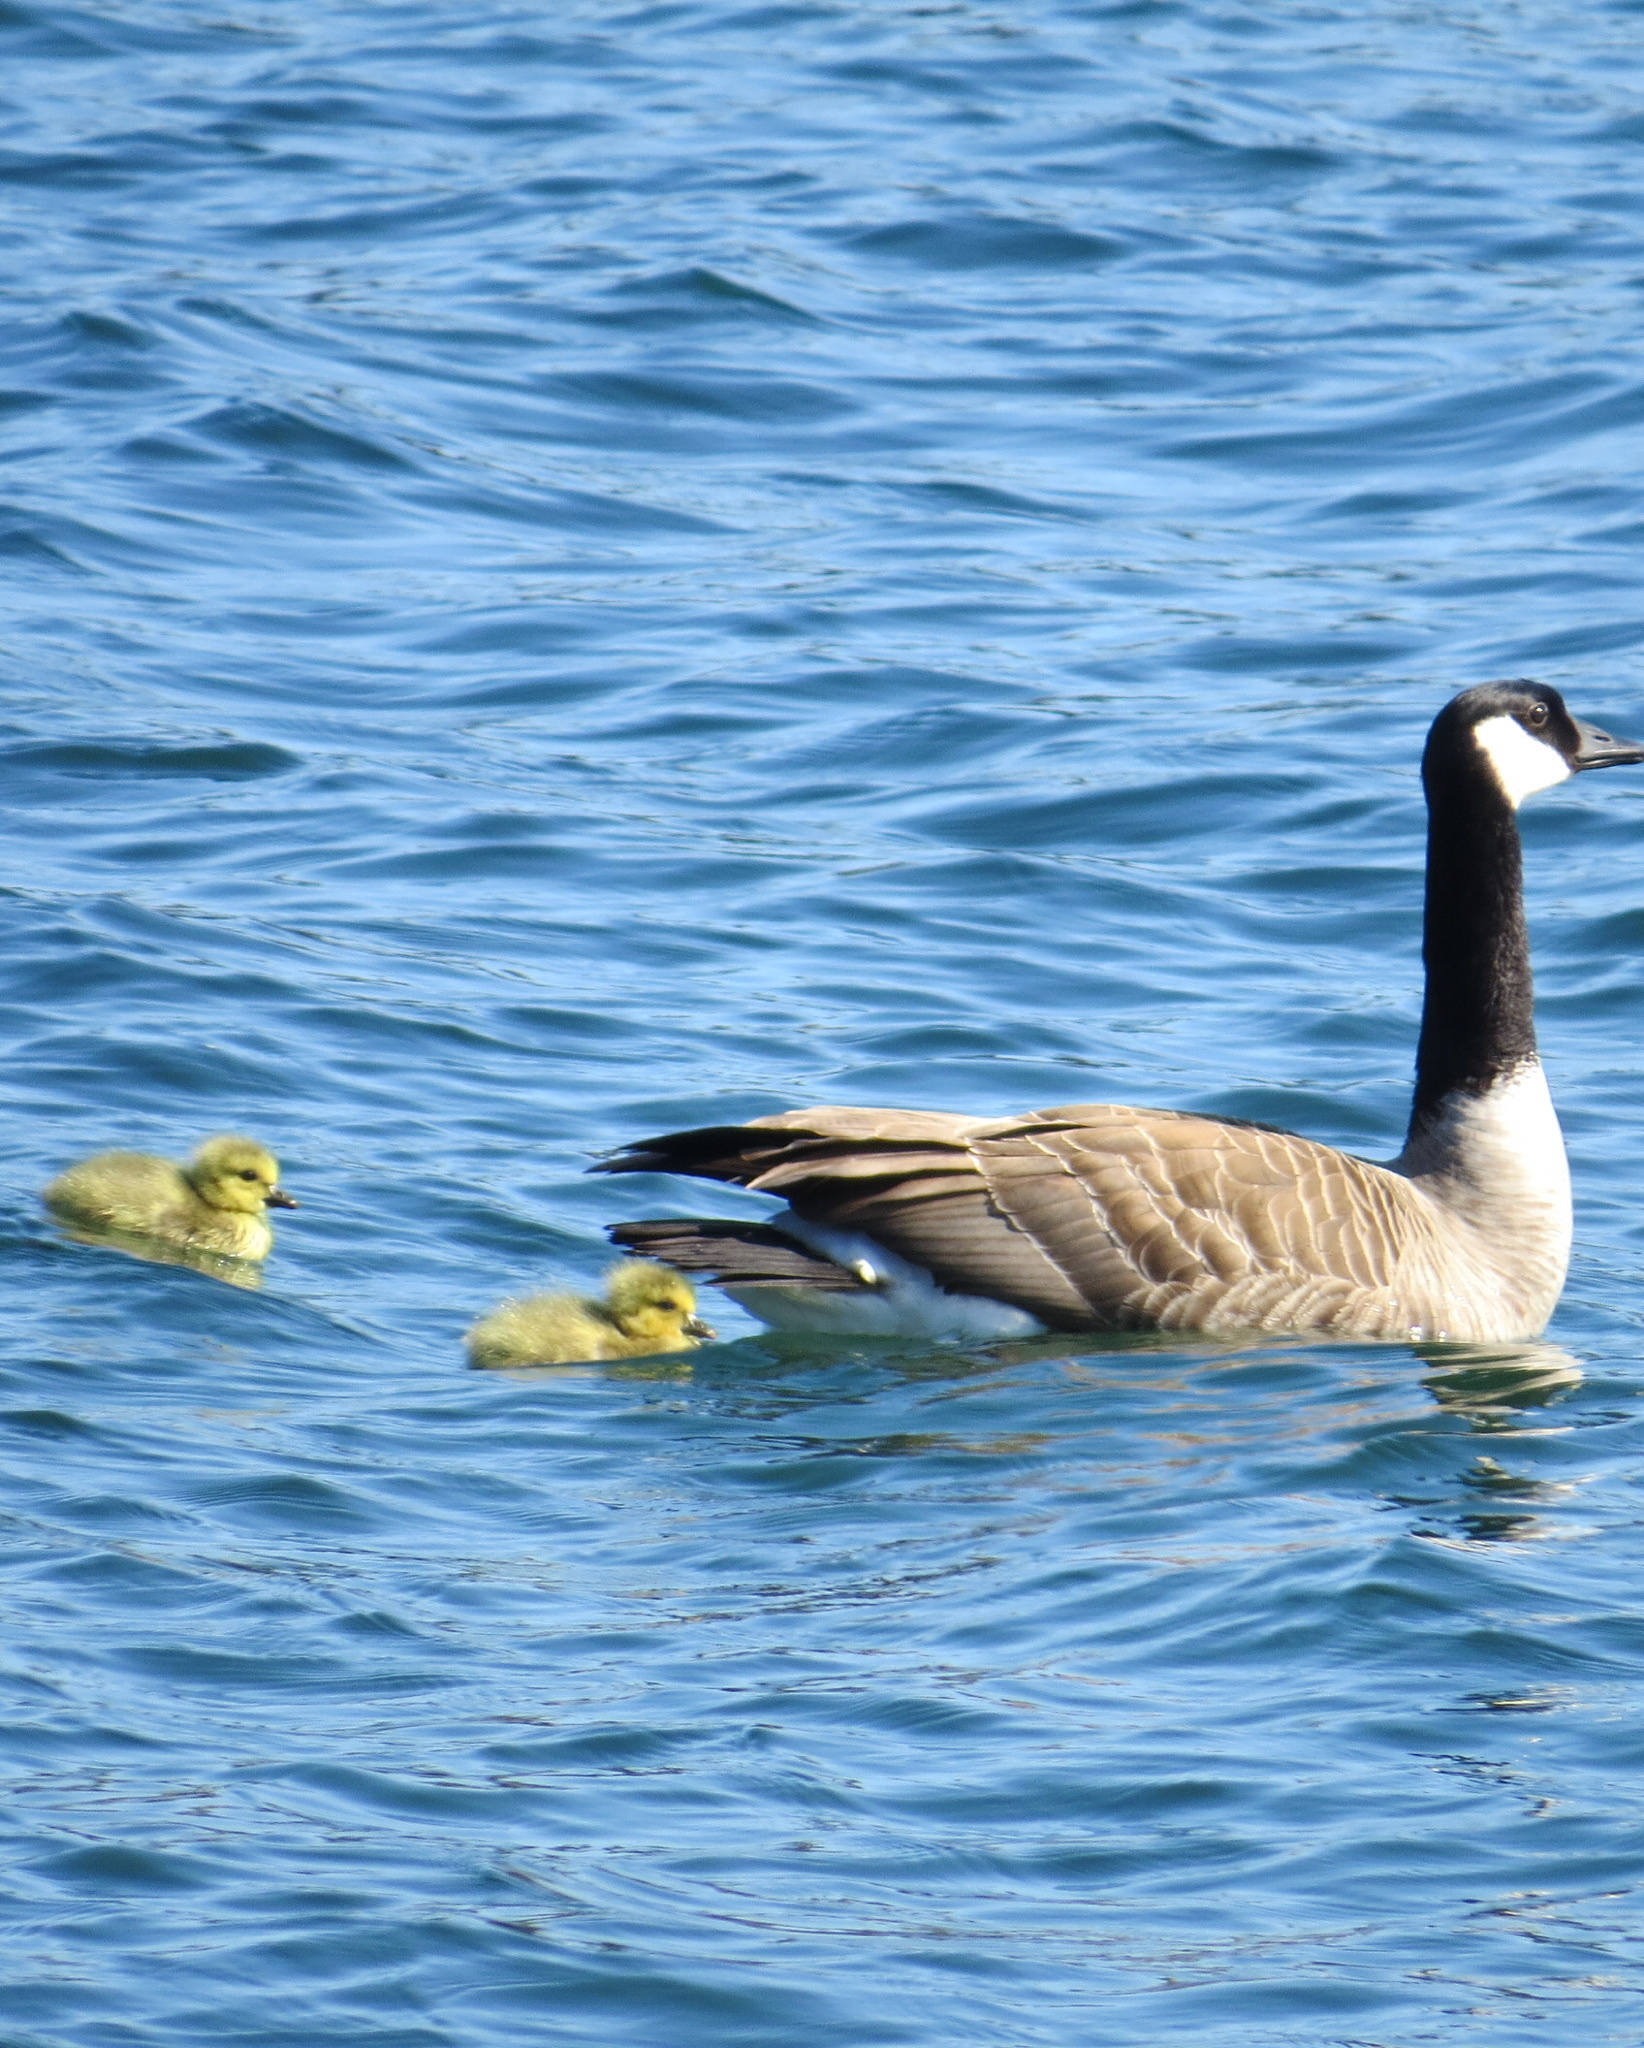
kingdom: Animalia
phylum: Chordata
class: Aves
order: Anseriformes
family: Anatidae
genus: Branta
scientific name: Branta canadensis
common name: Canada goose
